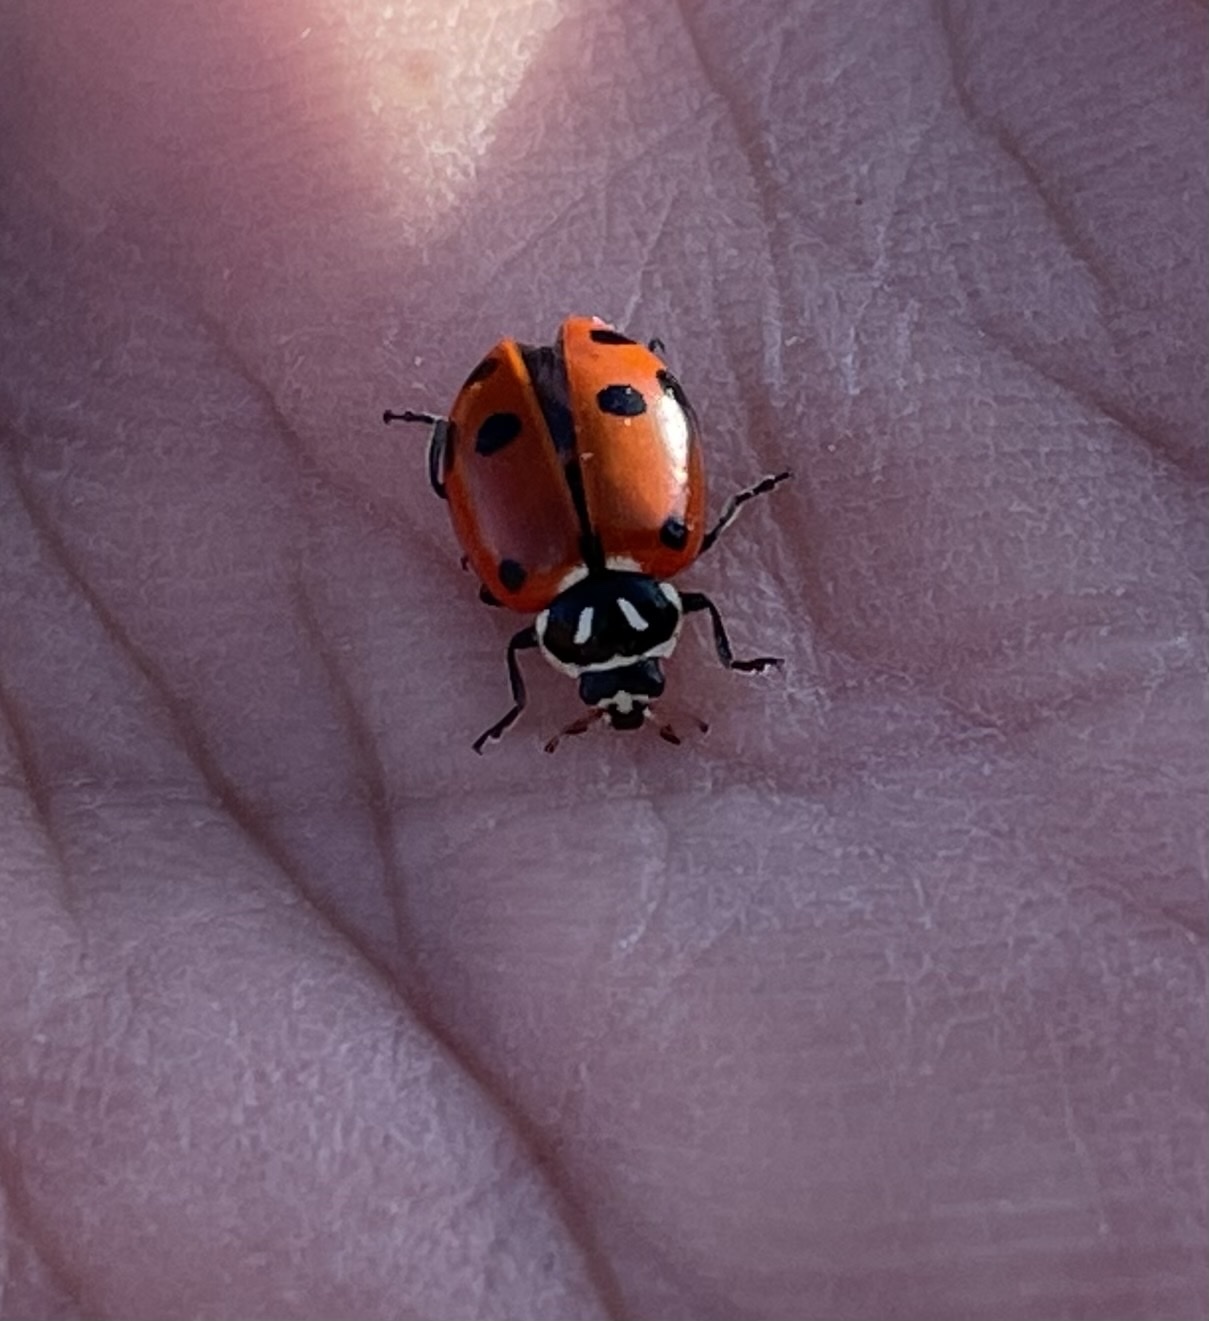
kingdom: Animalia
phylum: Arthropoda
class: Insecta
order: Coleoptera
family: Coccinellidae
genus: Hippodamia
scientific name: Hippodamia convergens
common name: Convergent lady beetle
